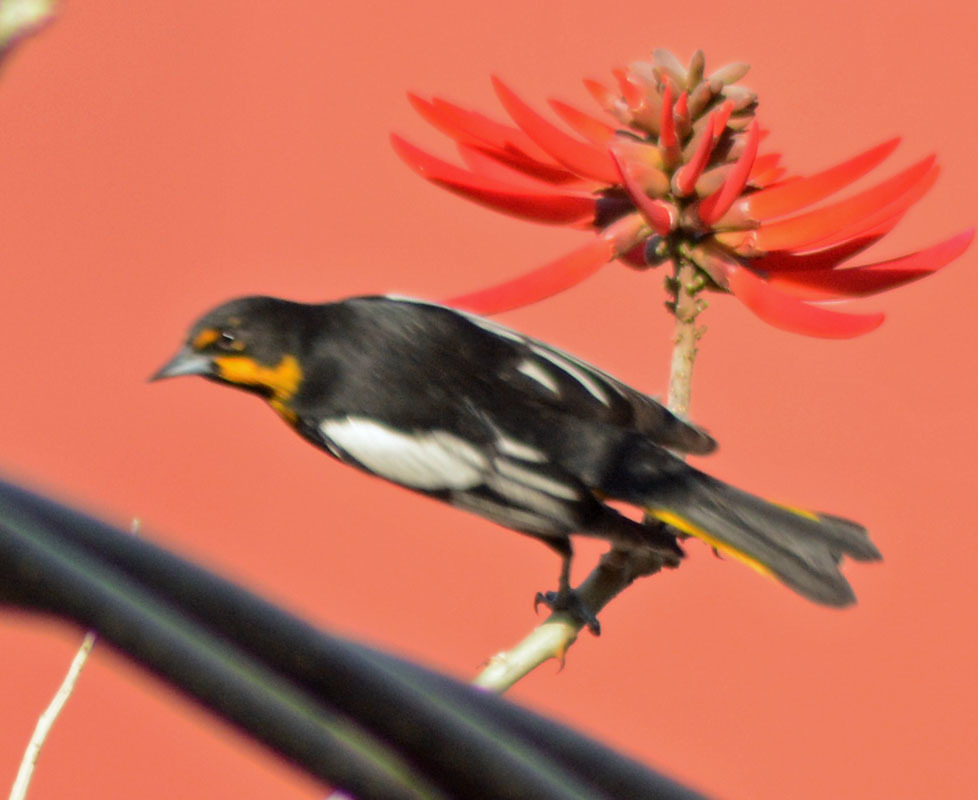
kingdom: Animalia
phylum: Chordata
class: Aves
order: Passeriformes
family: Icteridae
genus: Icterus
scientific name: Icterus abeillei
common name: Black-backed oriole
